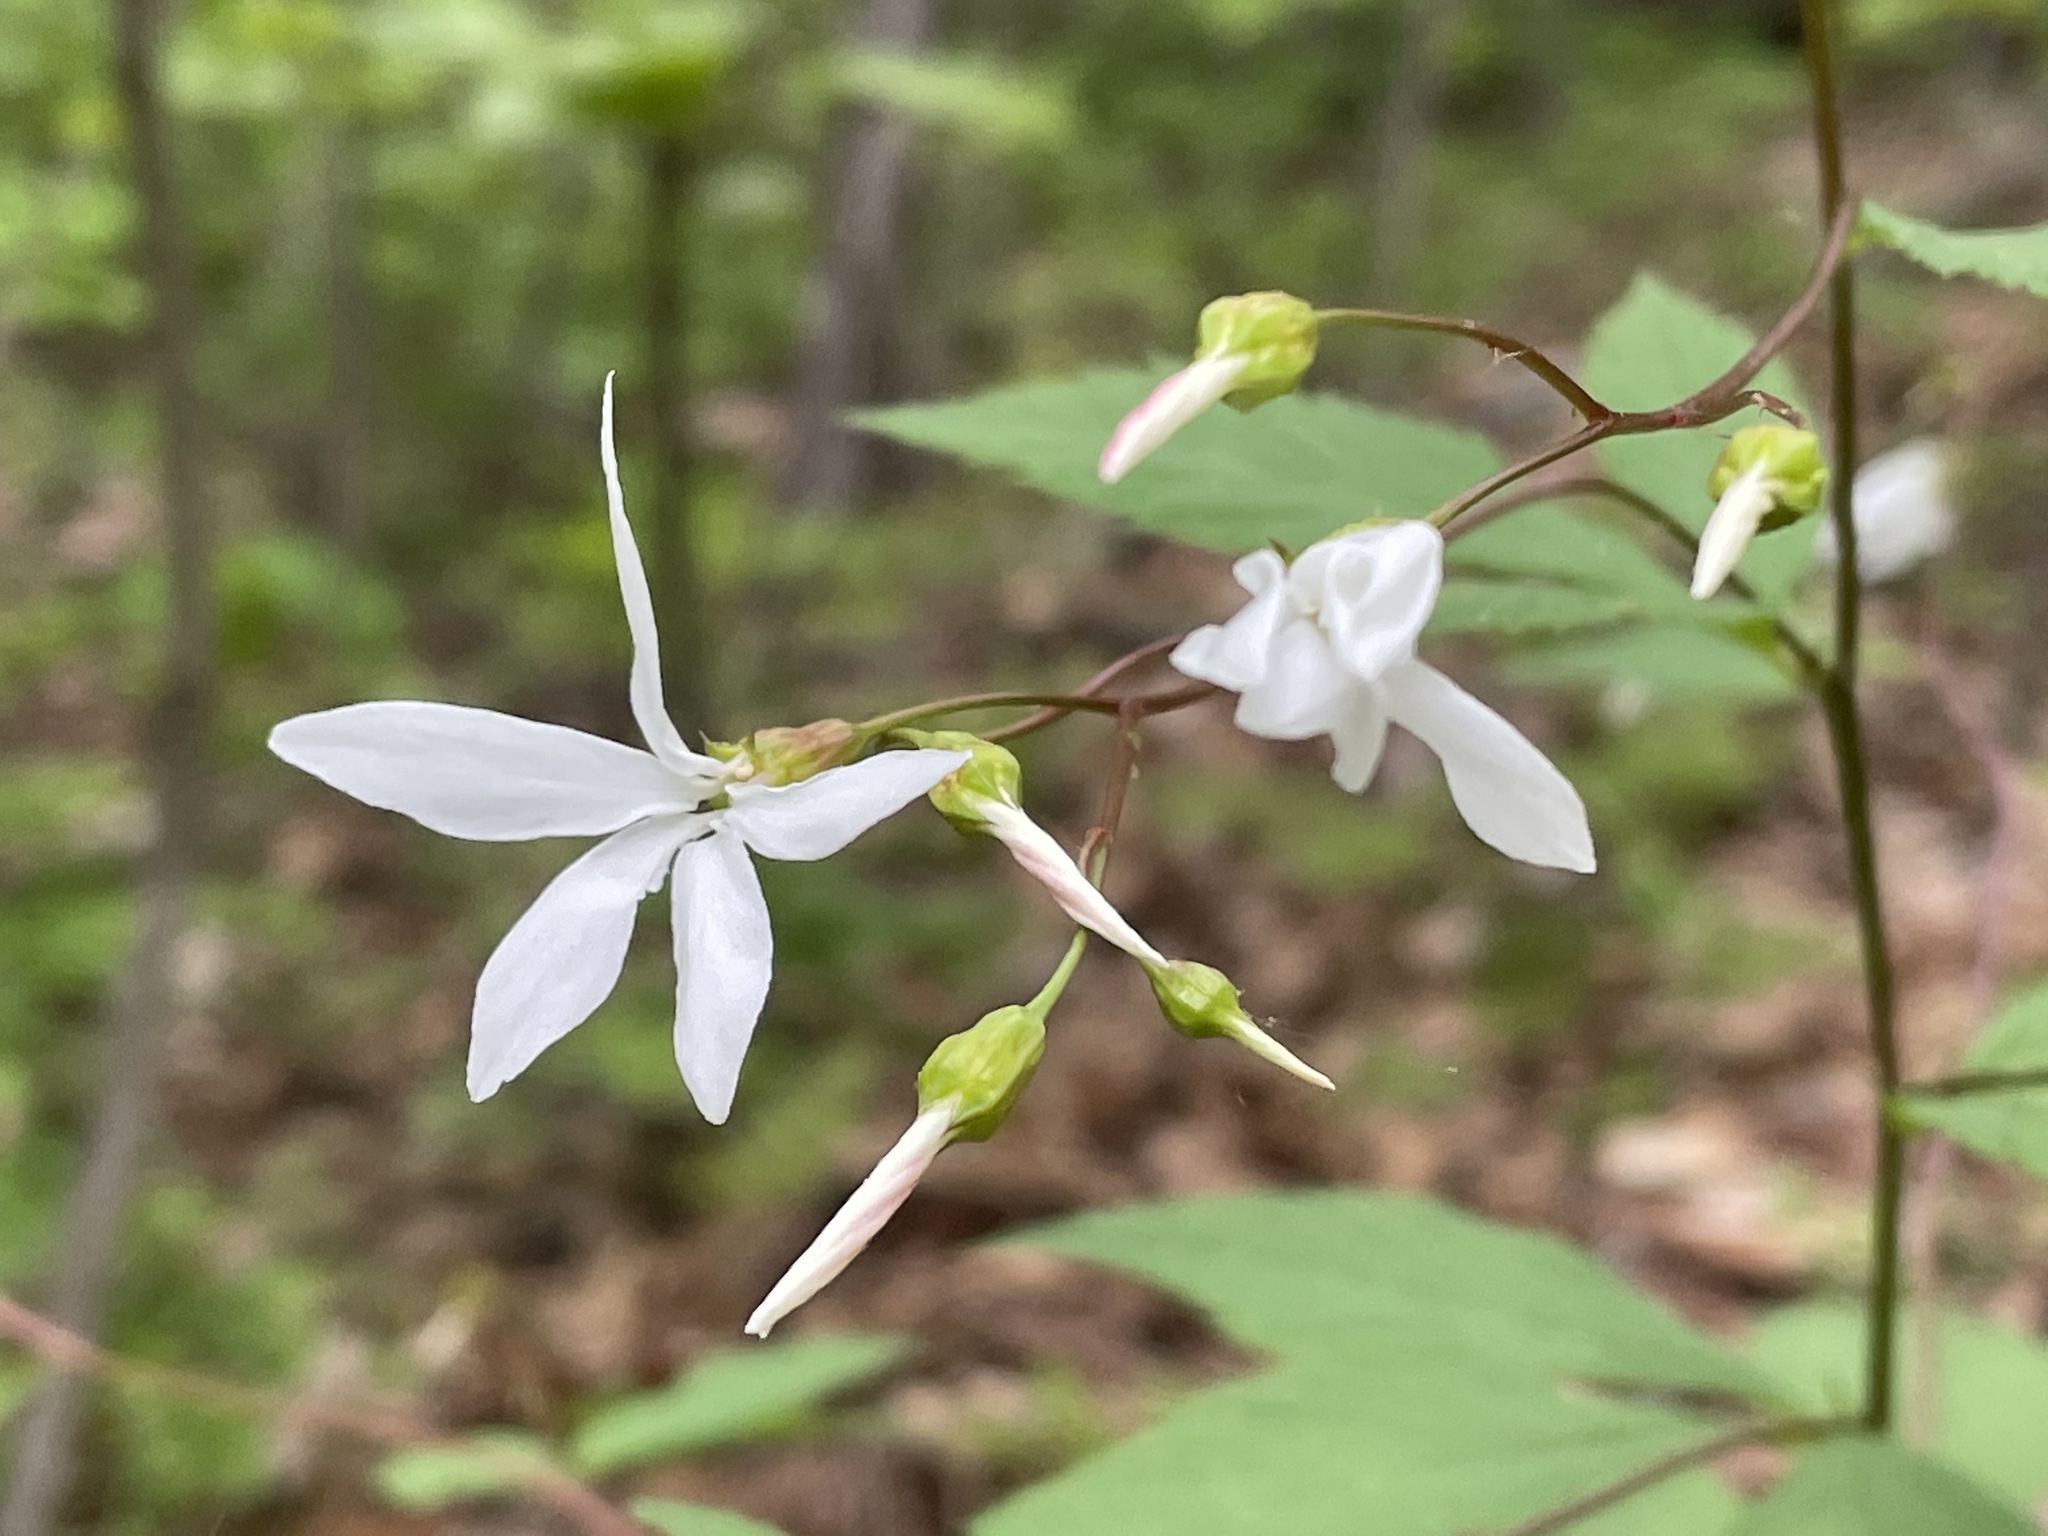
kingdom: Plantae
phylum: Tracheophyta
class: Magnoliopsida
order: Rosales
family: Rosaceae
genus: Gillenia
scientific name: Gillenia trifoliata
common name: Bowman's-root
